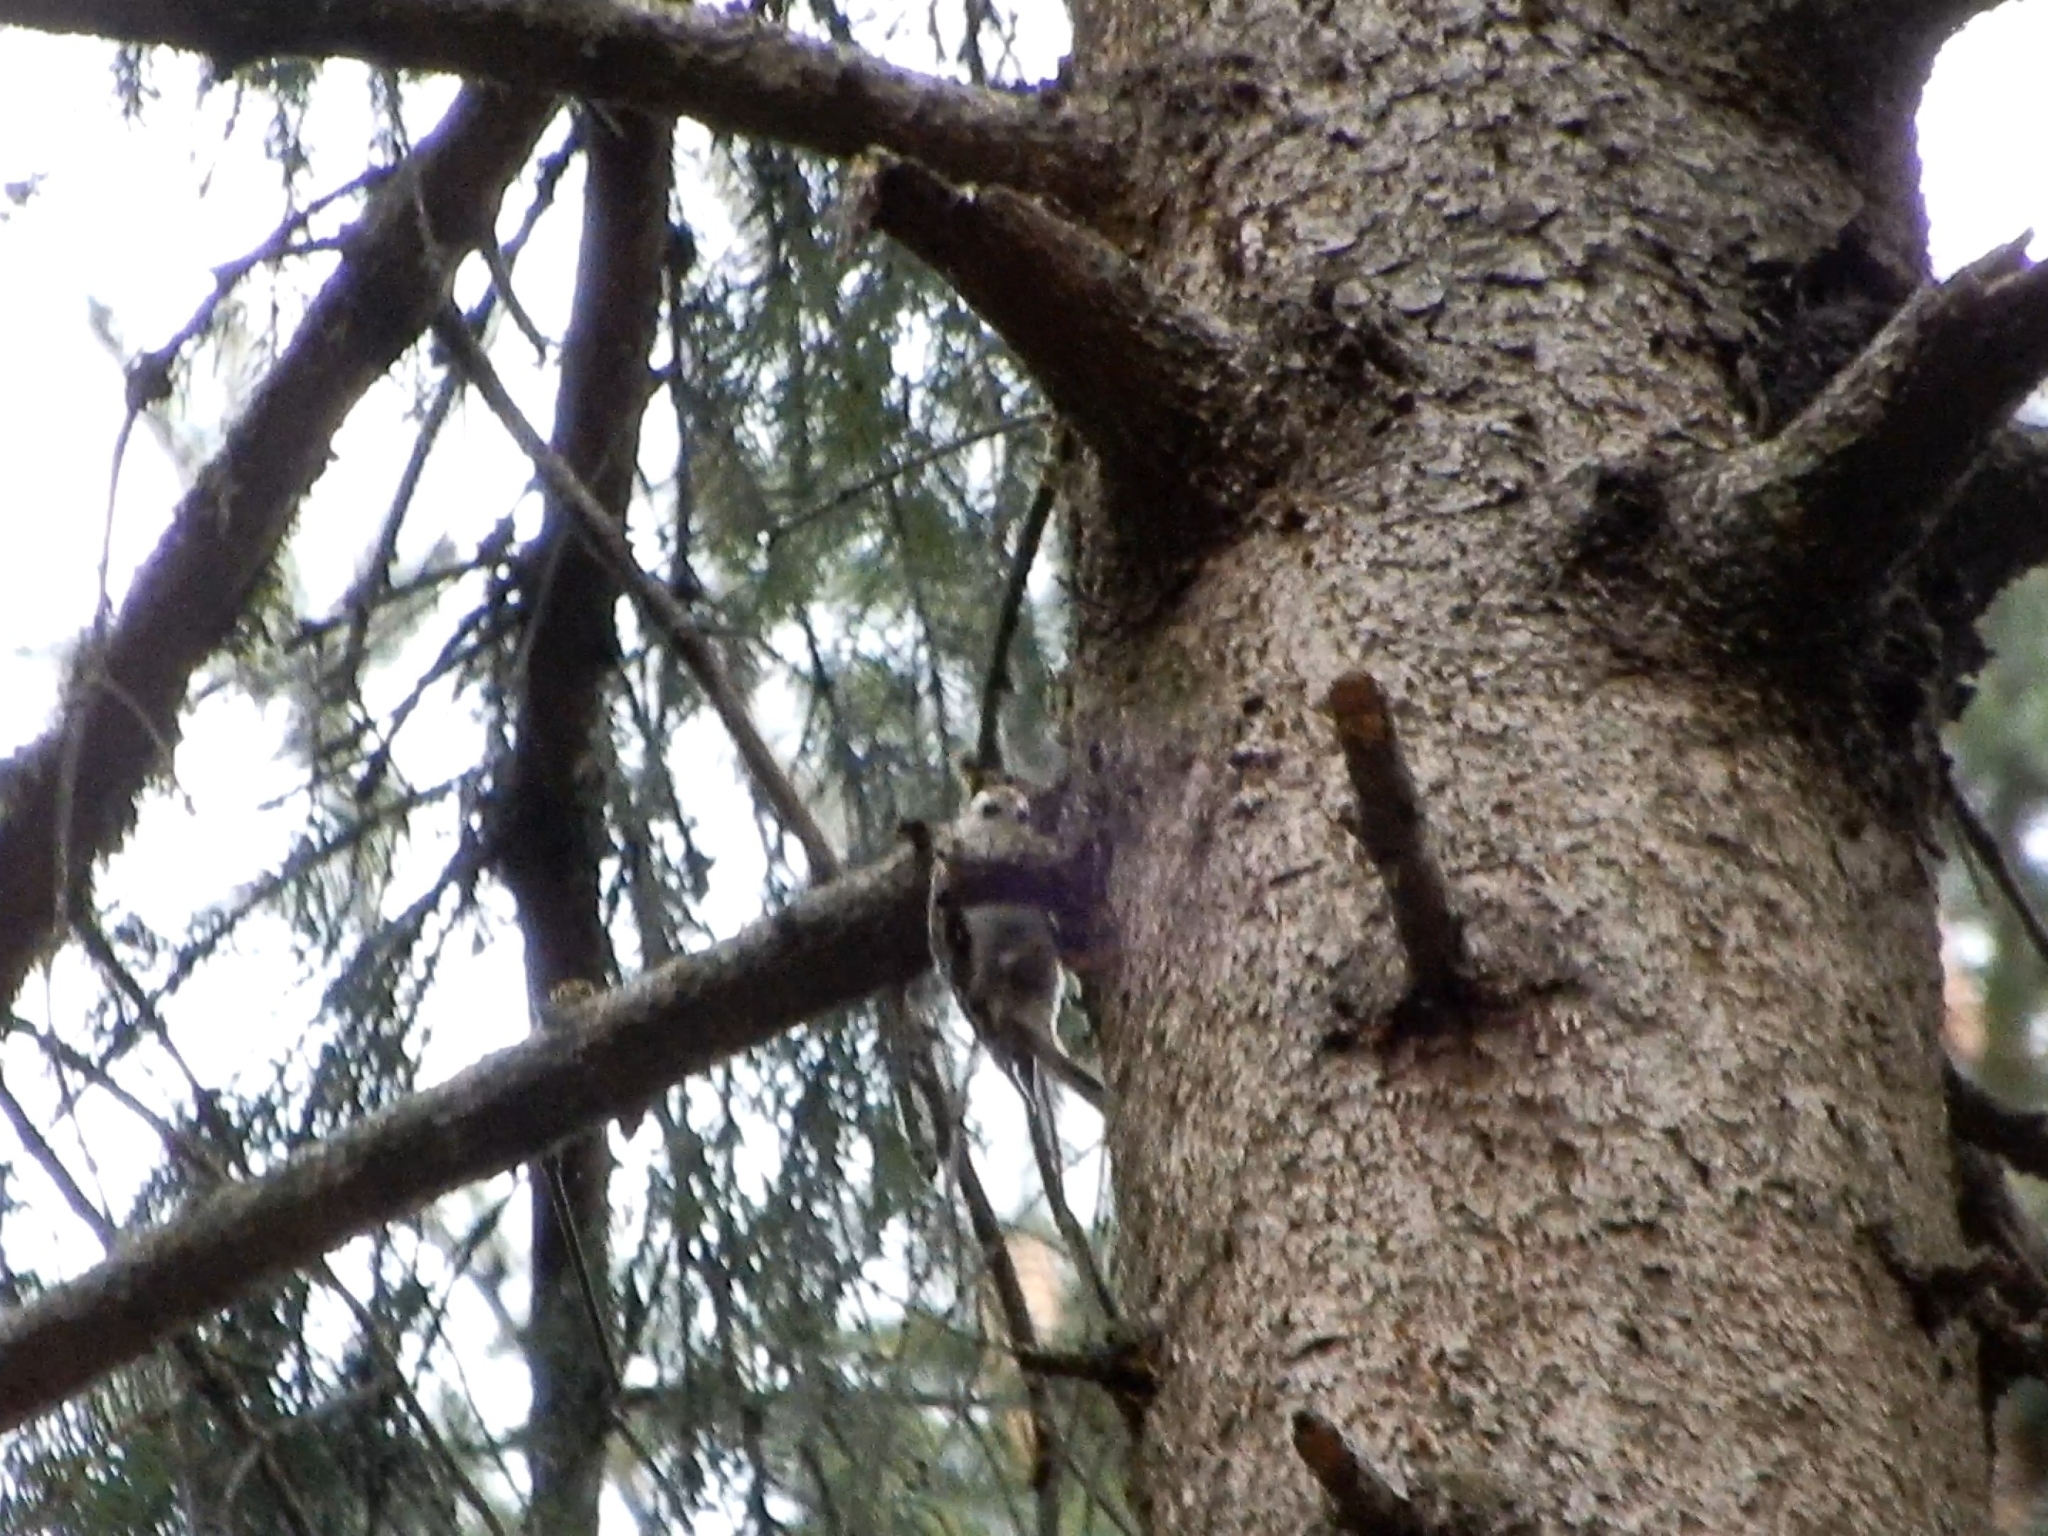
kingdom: Animalia
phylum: Chordata
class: Aves
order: Passeriformes
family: Certhiidae
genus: Certhia
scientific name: Certhia
